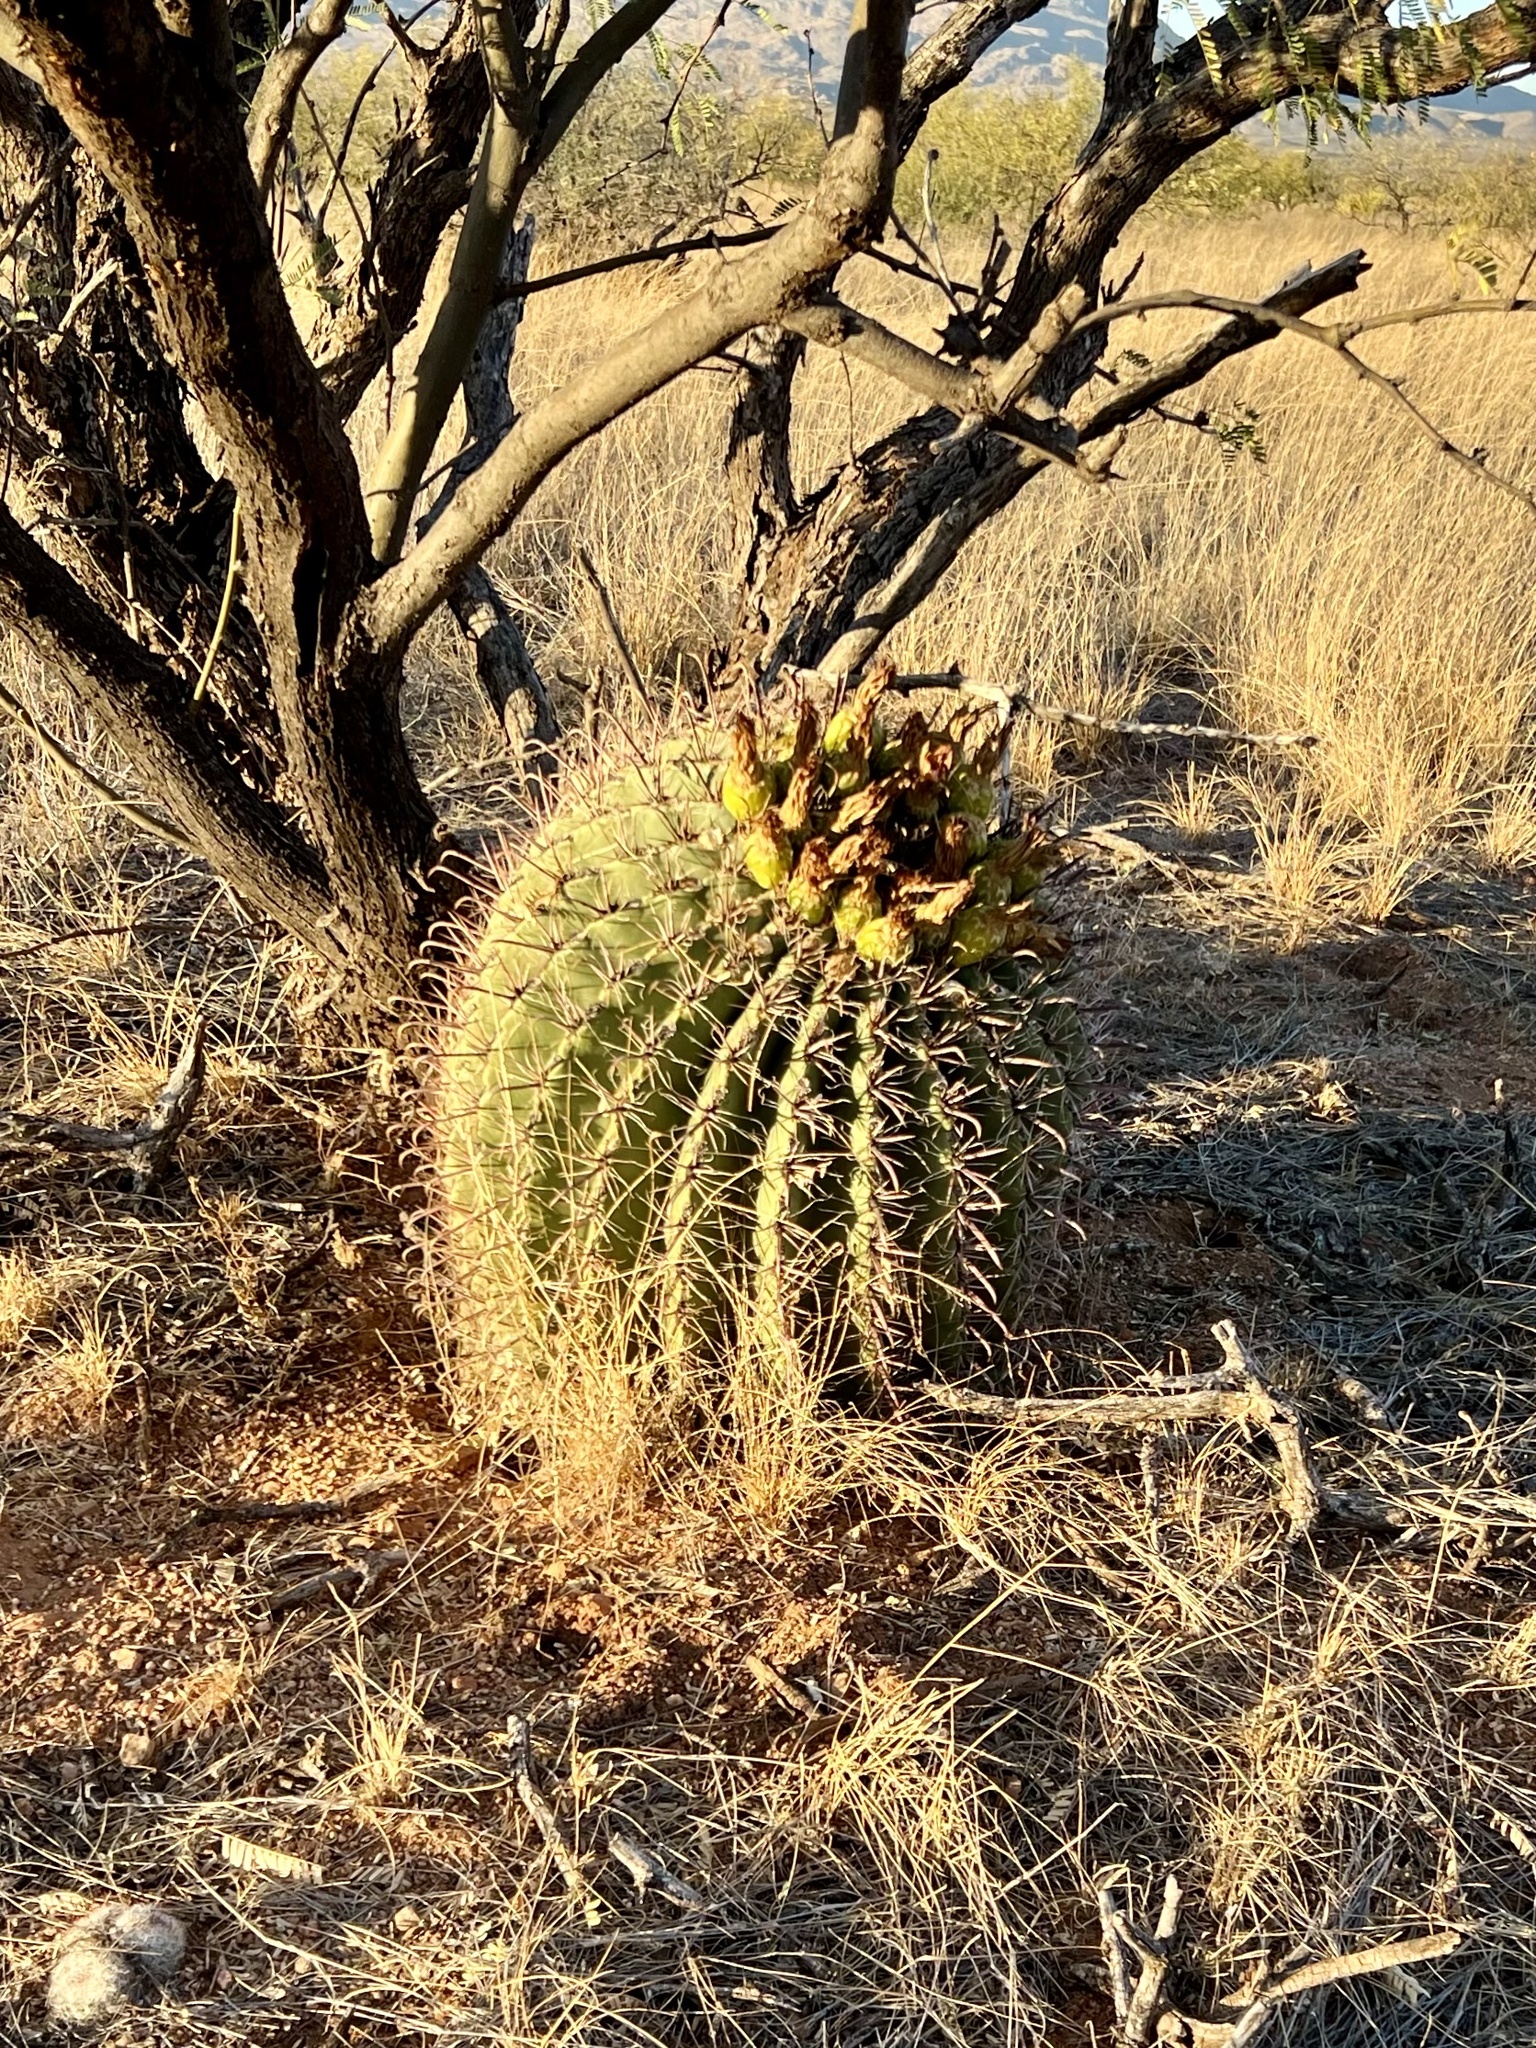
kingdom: Plantae
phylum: Tracheophyta
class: Magnoliopsida
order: Caryophyllales
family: Cactaceae
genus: Ferocactus
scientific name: Ferocactus wislizeni
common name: Candy barrel cactus
